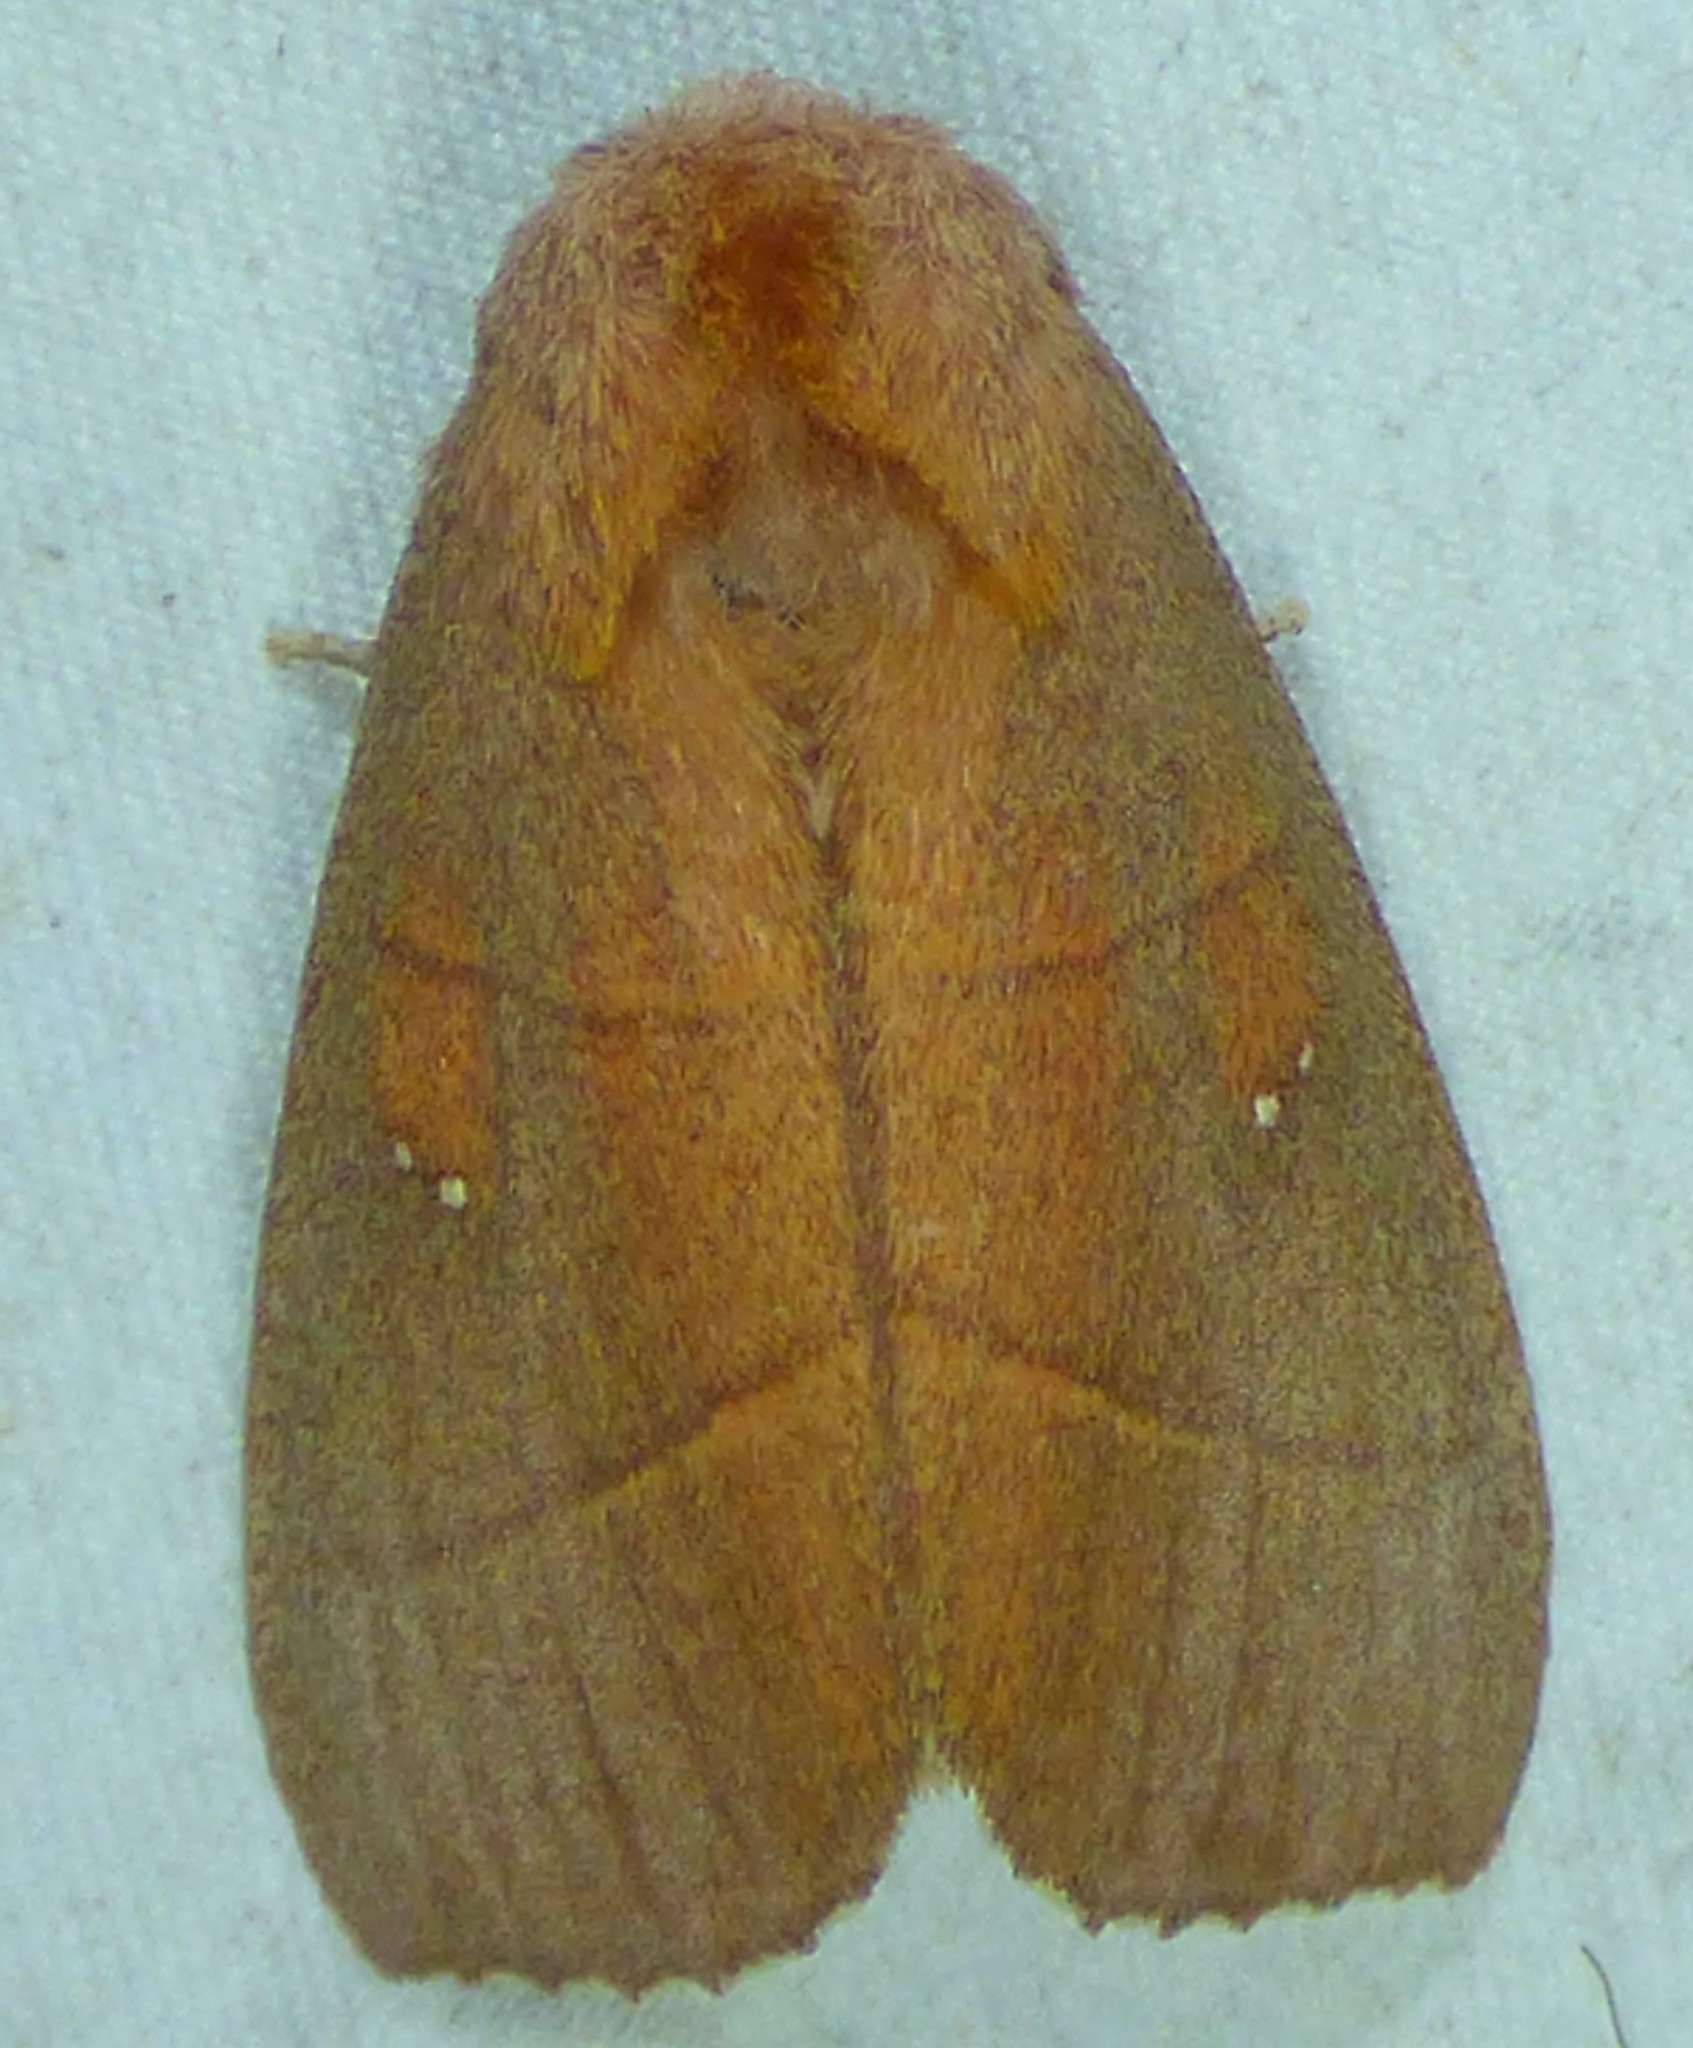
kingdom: Animalia
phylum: Arthropoda
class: Insecta
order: Lepidoptera
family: Notodontidae
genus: Nadata
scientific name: Nadata gibbosa
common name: White-dotted prominent
